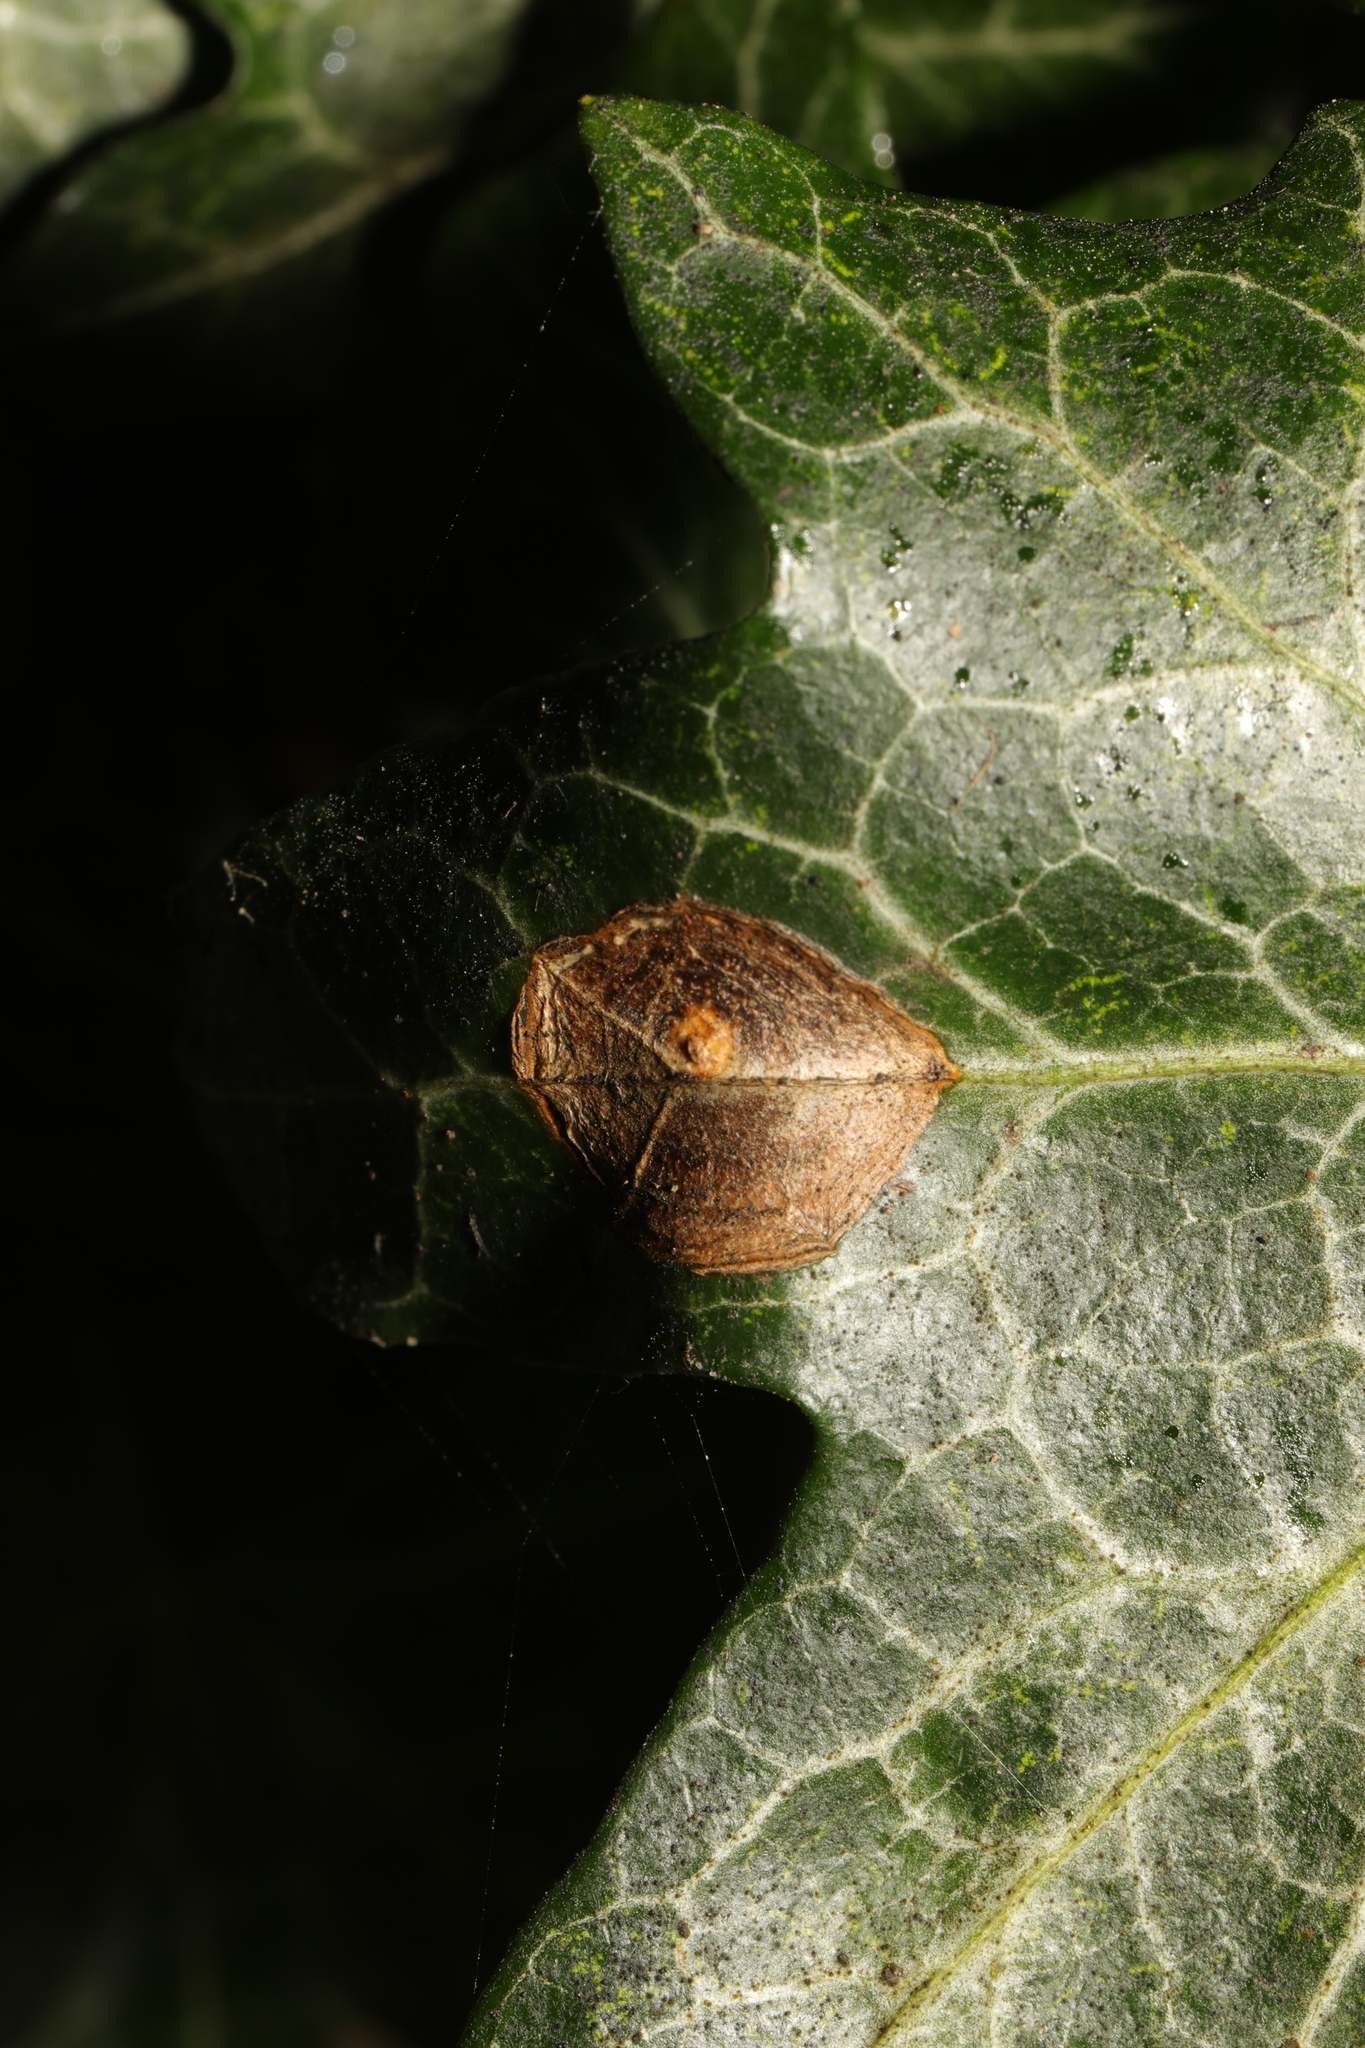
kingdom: Fungi
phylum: Ascomycota
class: Dothideomycetes
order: Pleosporales
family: Didymellaceae
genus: Boeremia
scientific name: Boeremia hedericola
